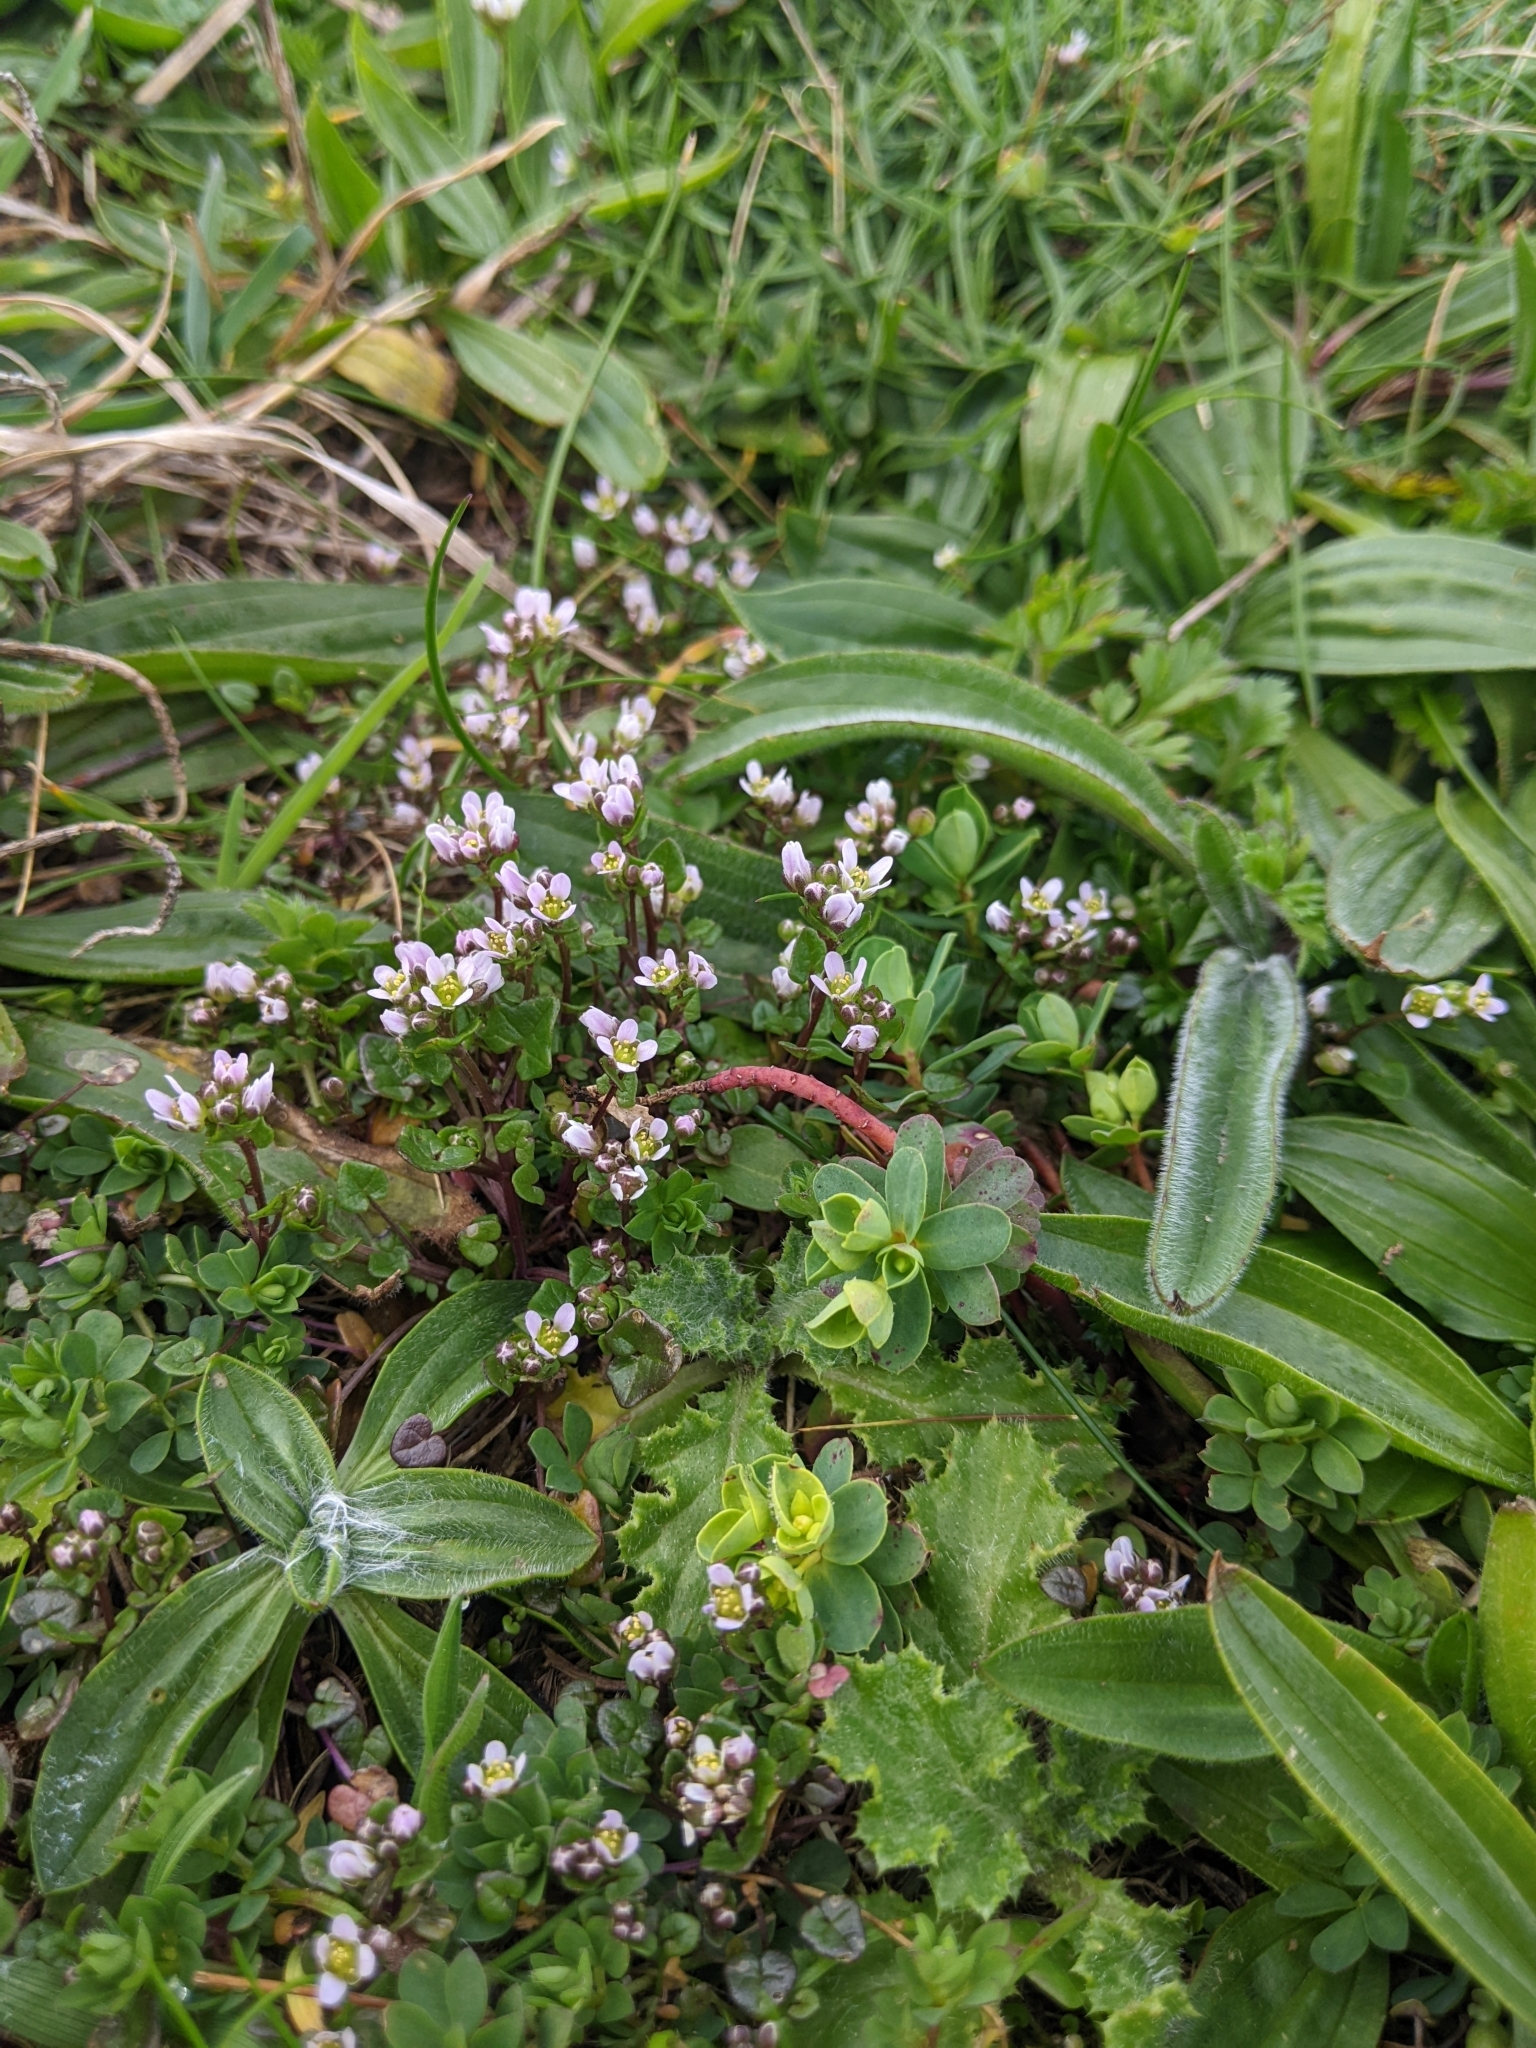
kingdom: Plantae
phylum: Tracheophyta
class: Magnoliopsida
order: Brassicales
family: Brassicaceae
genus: Cochlearia
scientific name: Cochlearia danica
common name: Early scurvygrass
